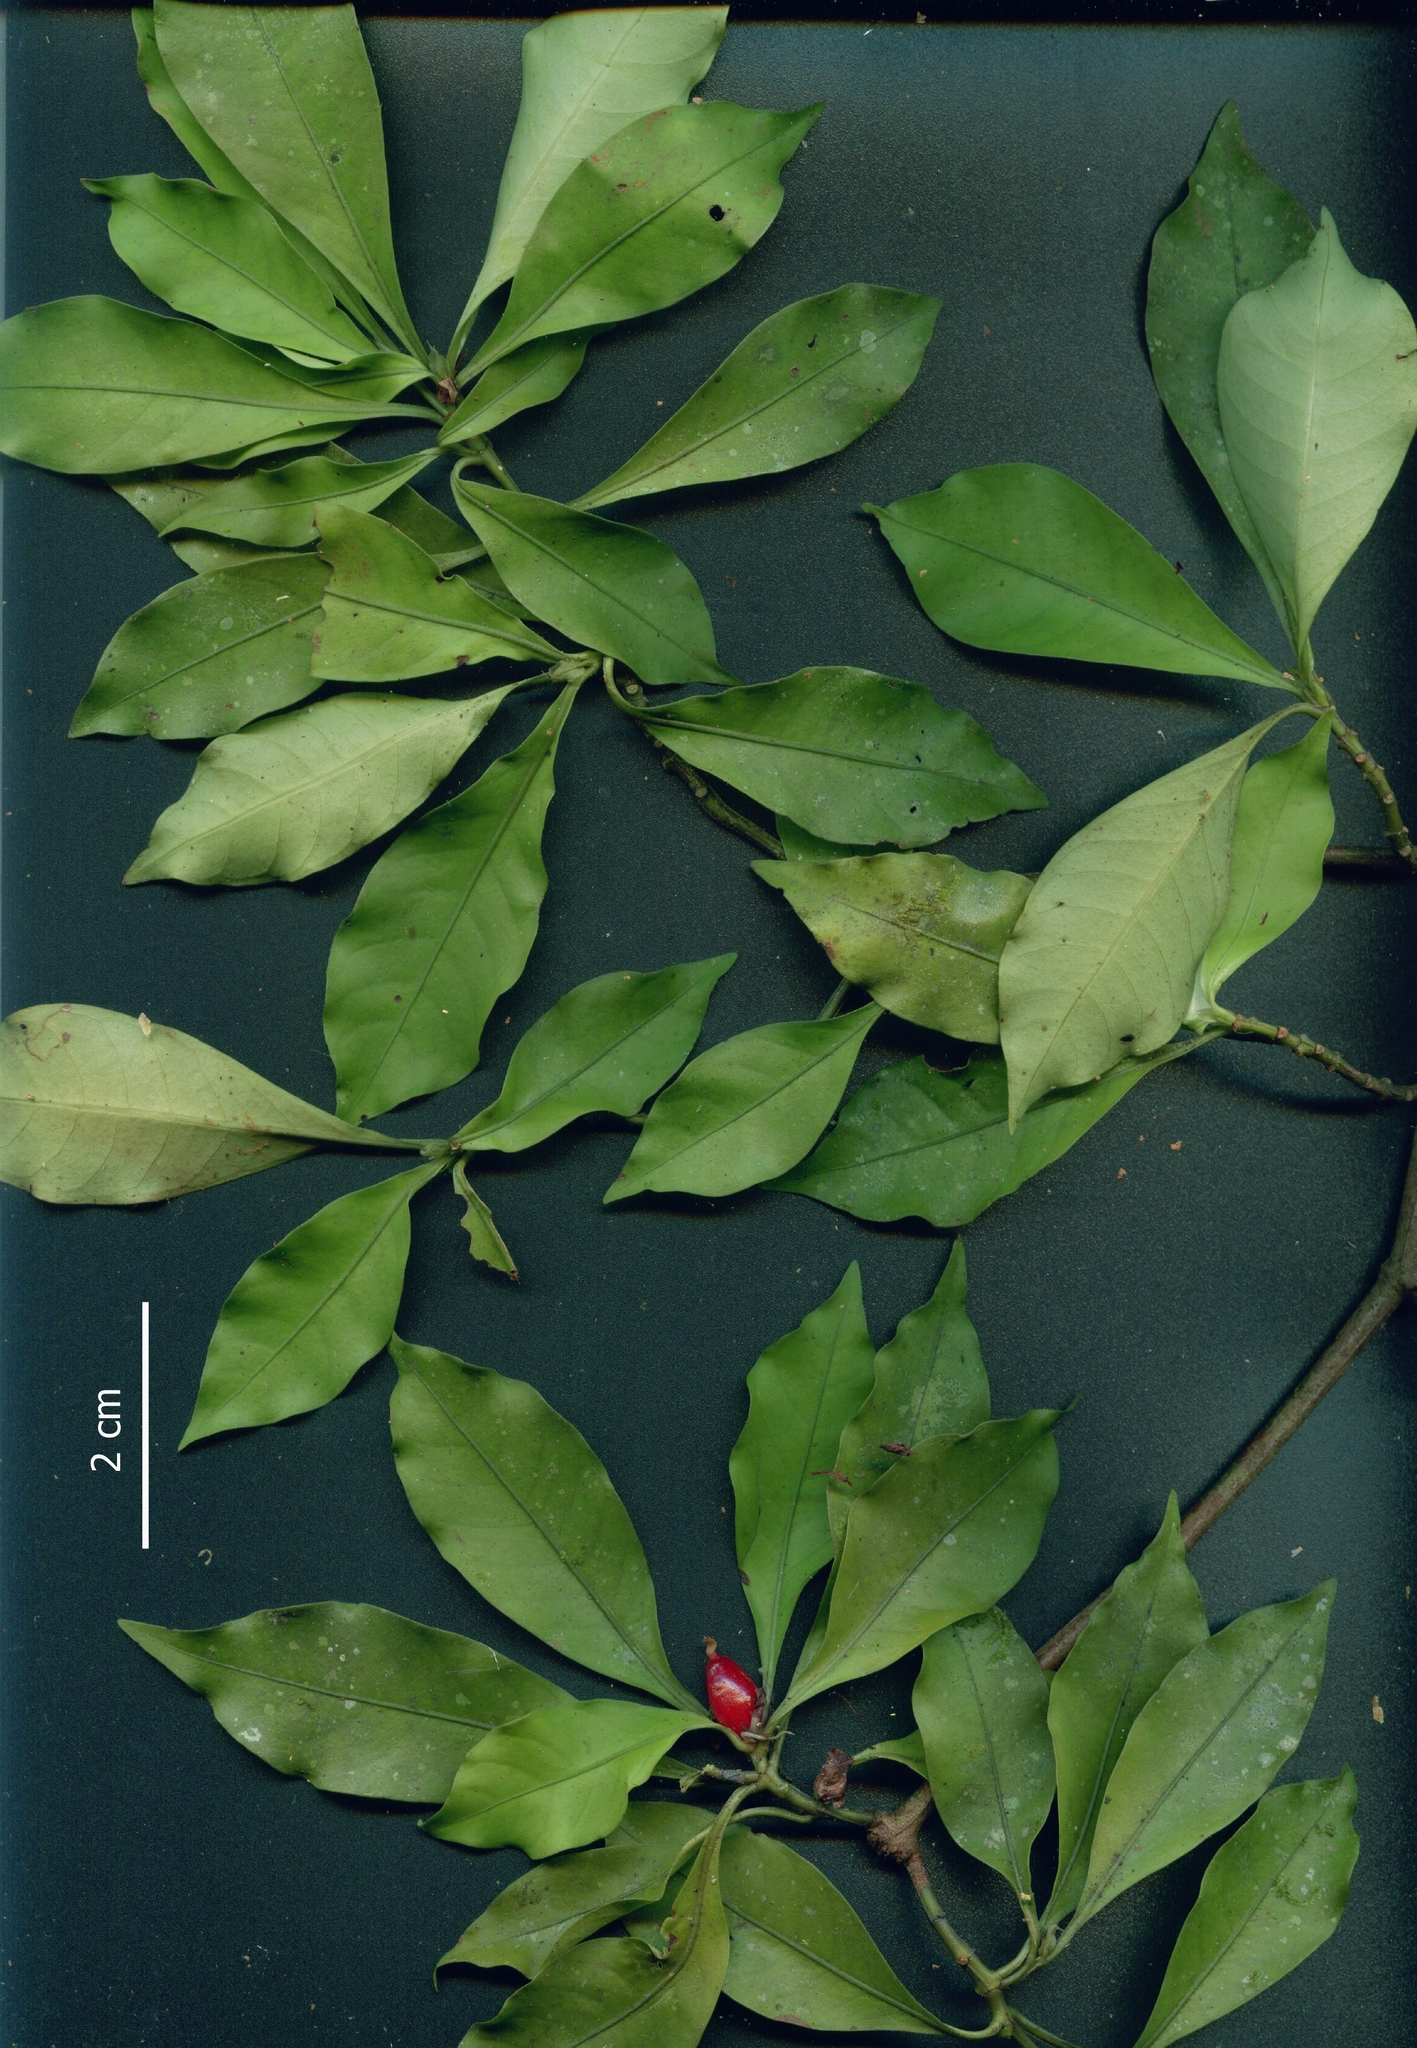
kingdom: Plantae
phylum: Tracheophyta
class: Magnoliopsida
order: Gentianales
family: Rubiaceae
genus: Psychotria
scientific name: Psychotria chagrensis
